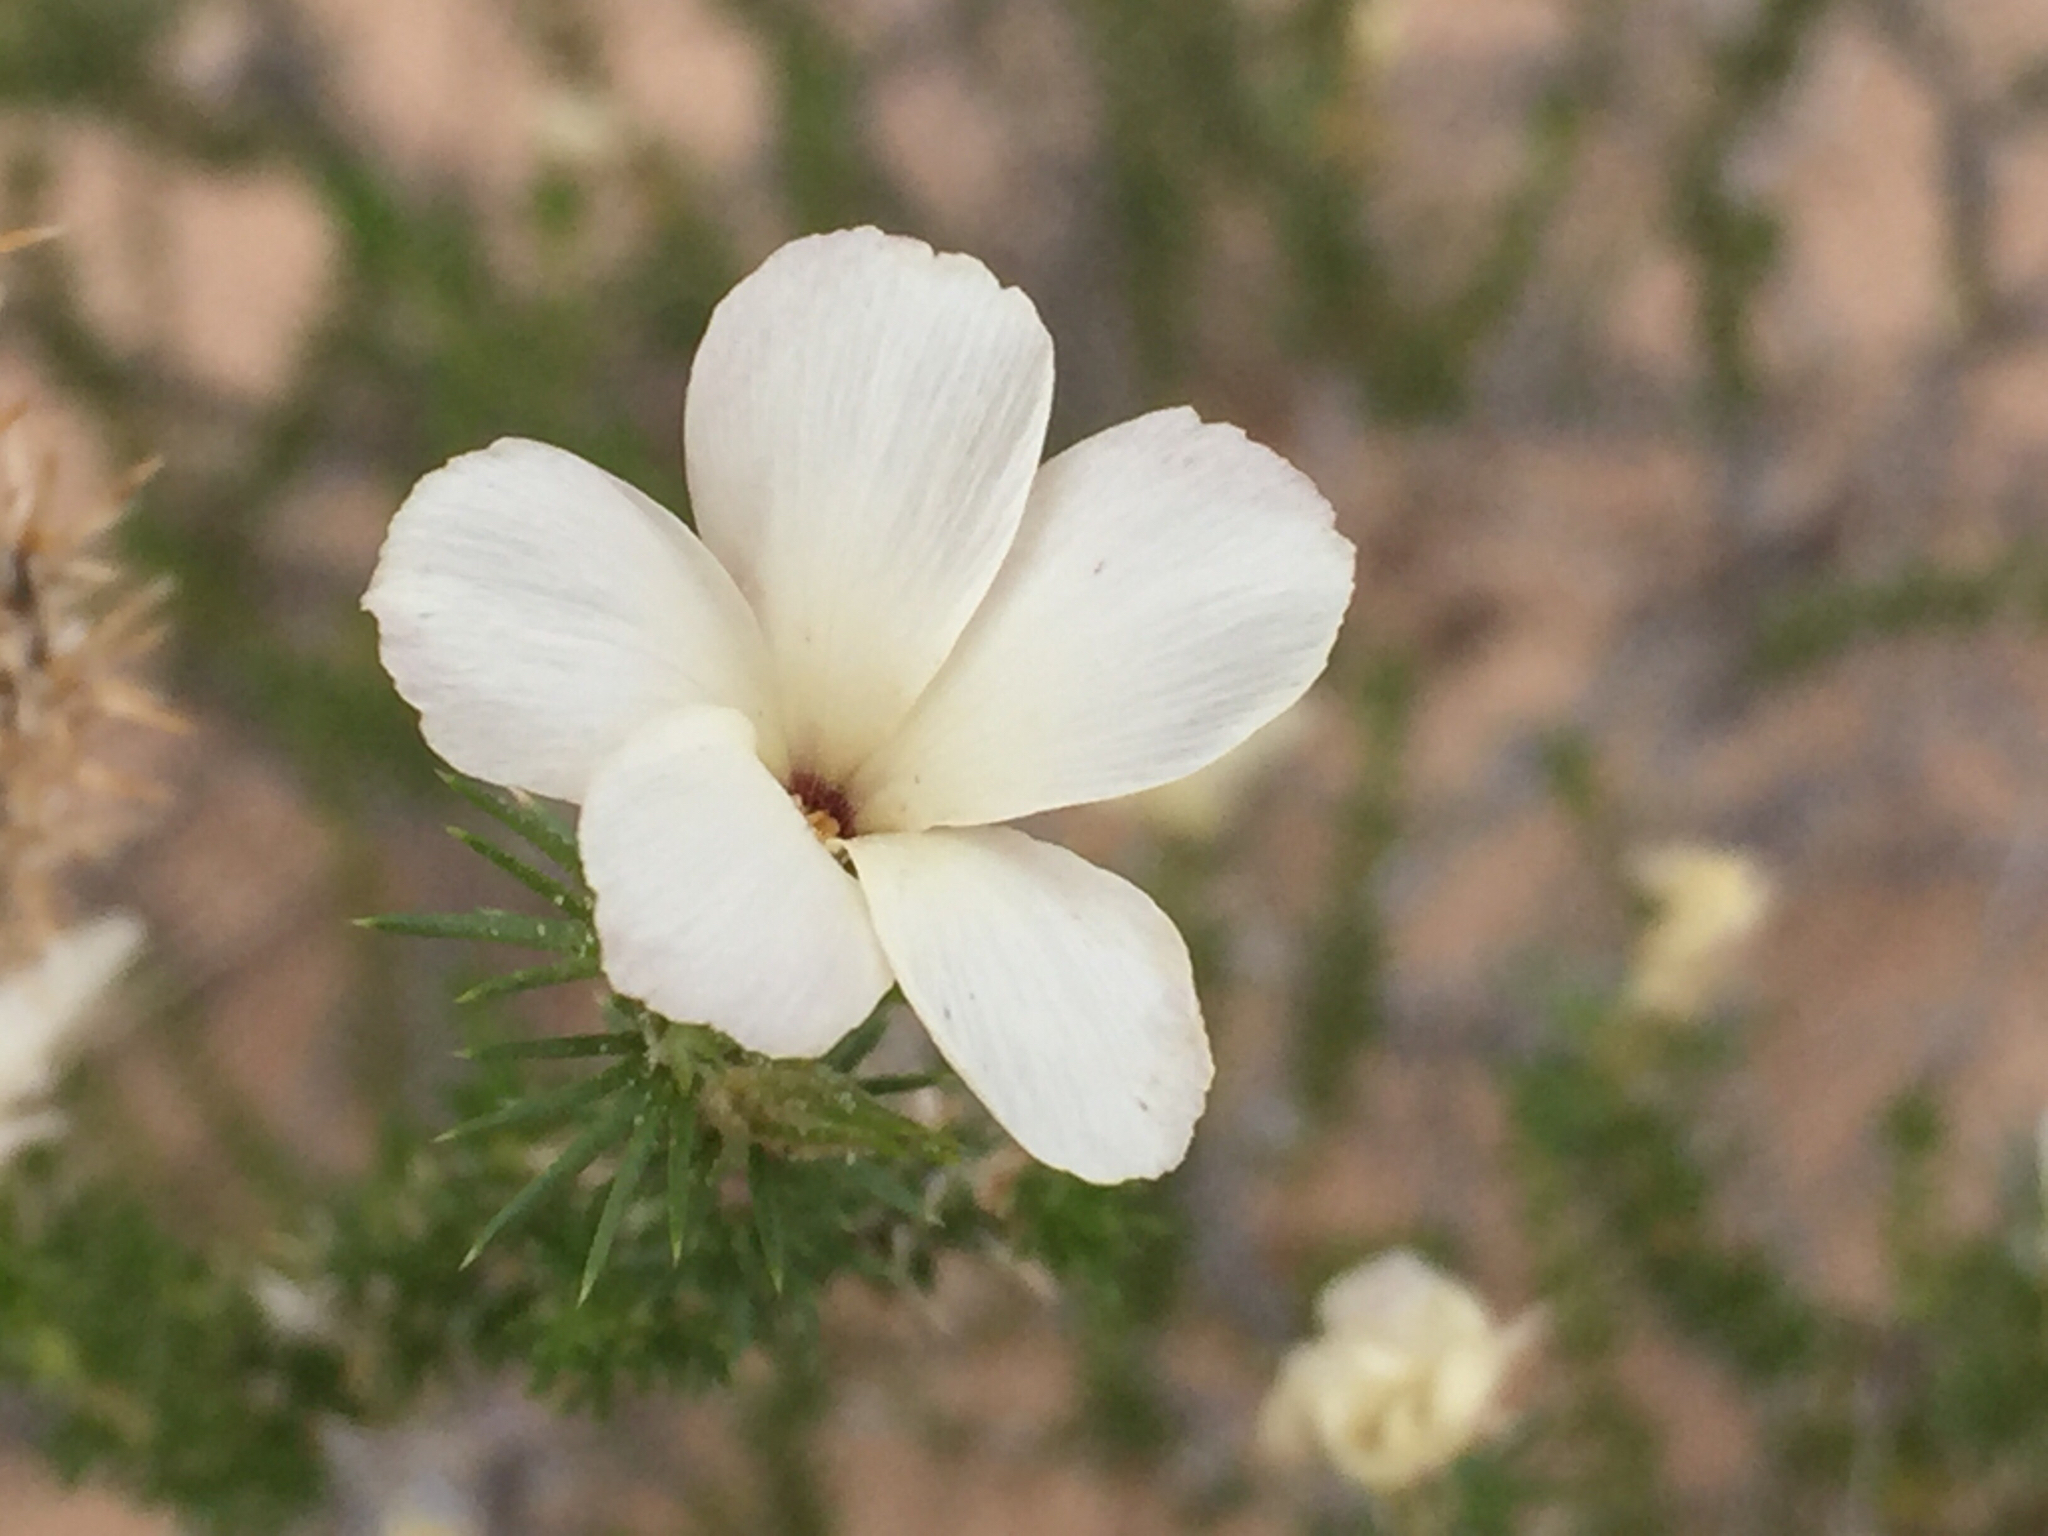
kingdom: Plantae
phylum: Tracheophyta
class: Magnoliopsida
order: Ericales
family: Polemoniaceae
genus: Linanthus
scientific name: Linanthus pungens
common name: Granite prickly phlox
